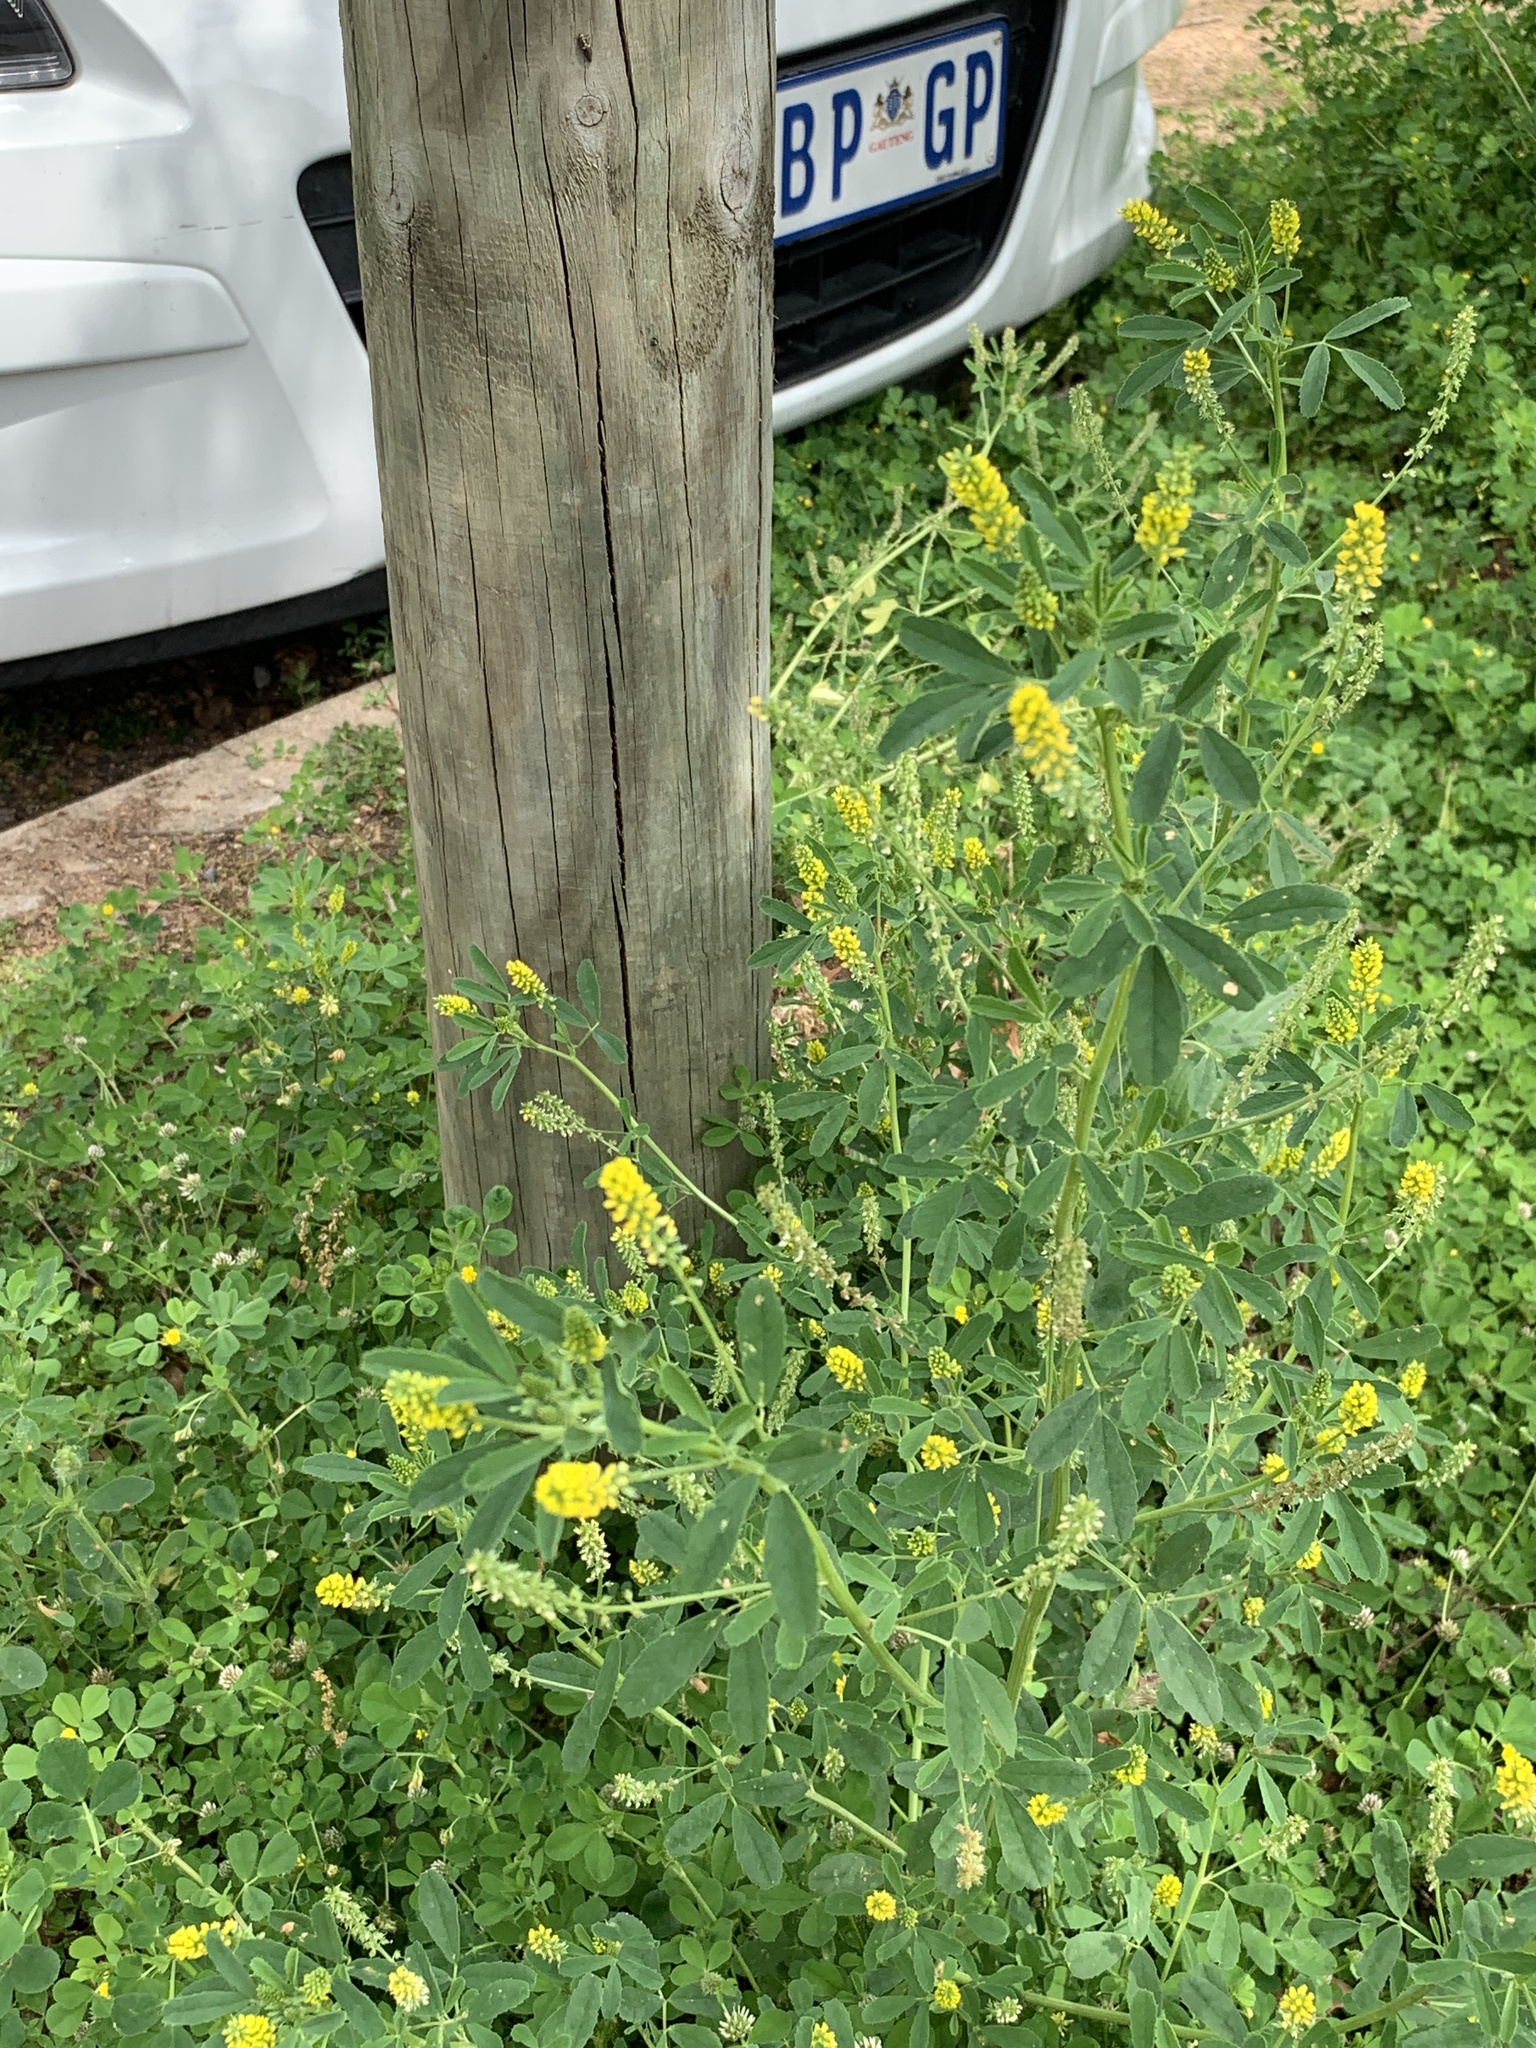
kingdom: Plantae
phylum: Tracheophyta
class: Magnoliopsida
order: Fabales
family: Fabaceae
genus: Melilotus
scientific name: Melilotus indicus
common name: Small melilot
